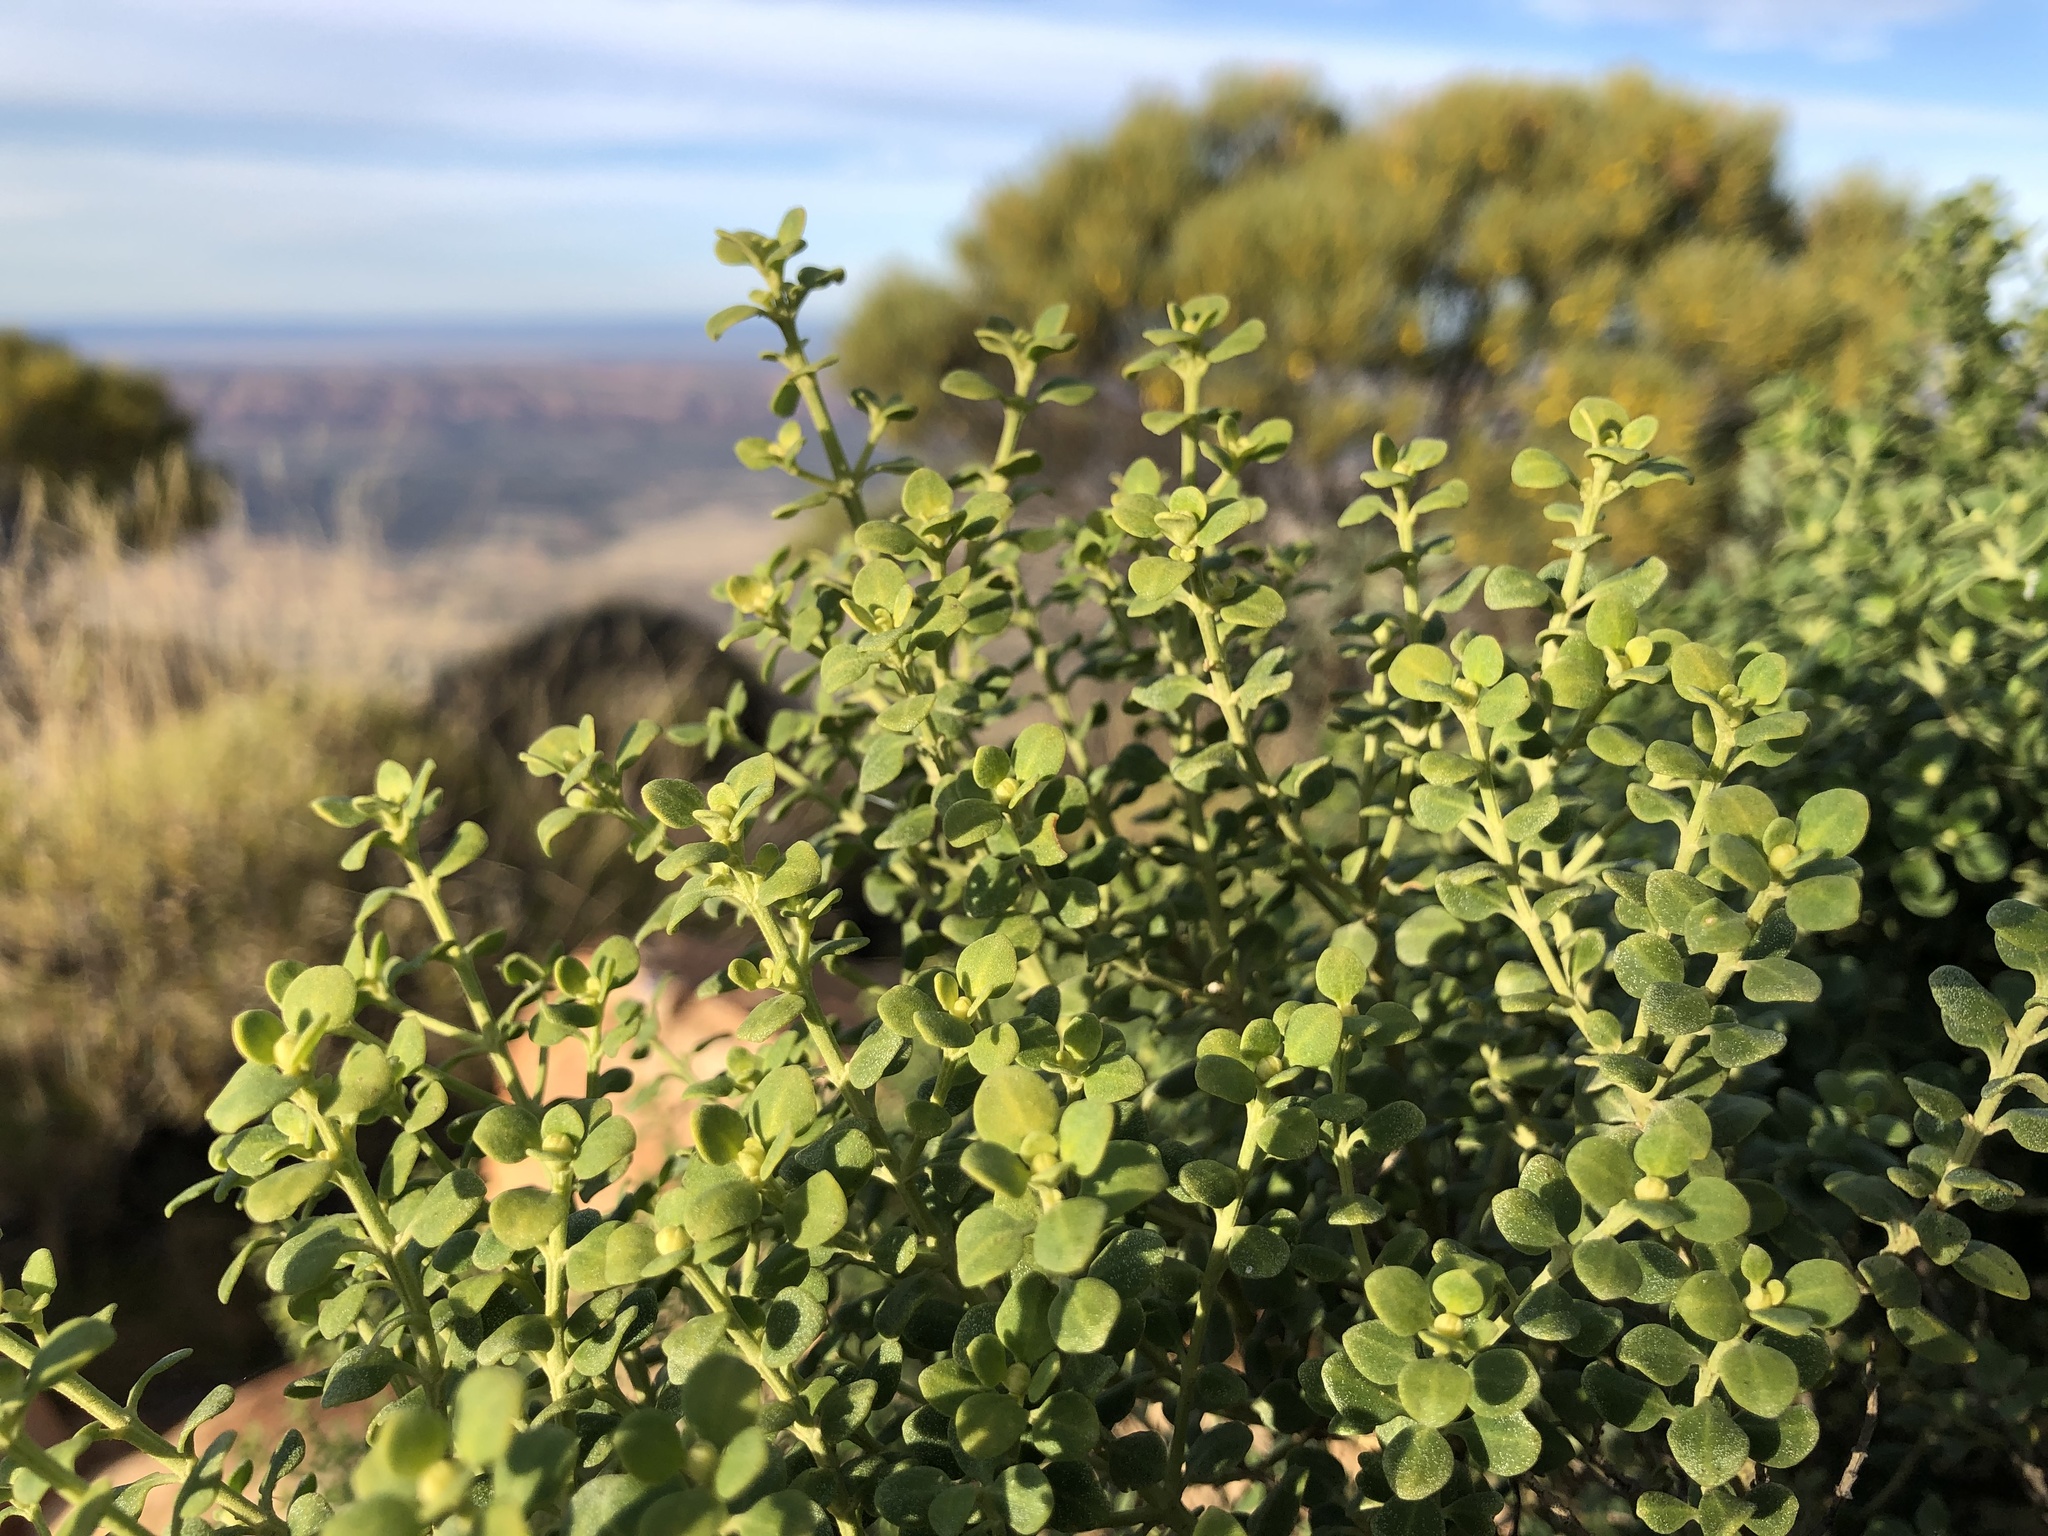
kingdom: Plantae
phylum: Tracheophyta
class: Magnoliopsida
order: Lamiales
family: Lamiaceae
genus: Prostanthera
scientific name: Prostanthera schultzii
